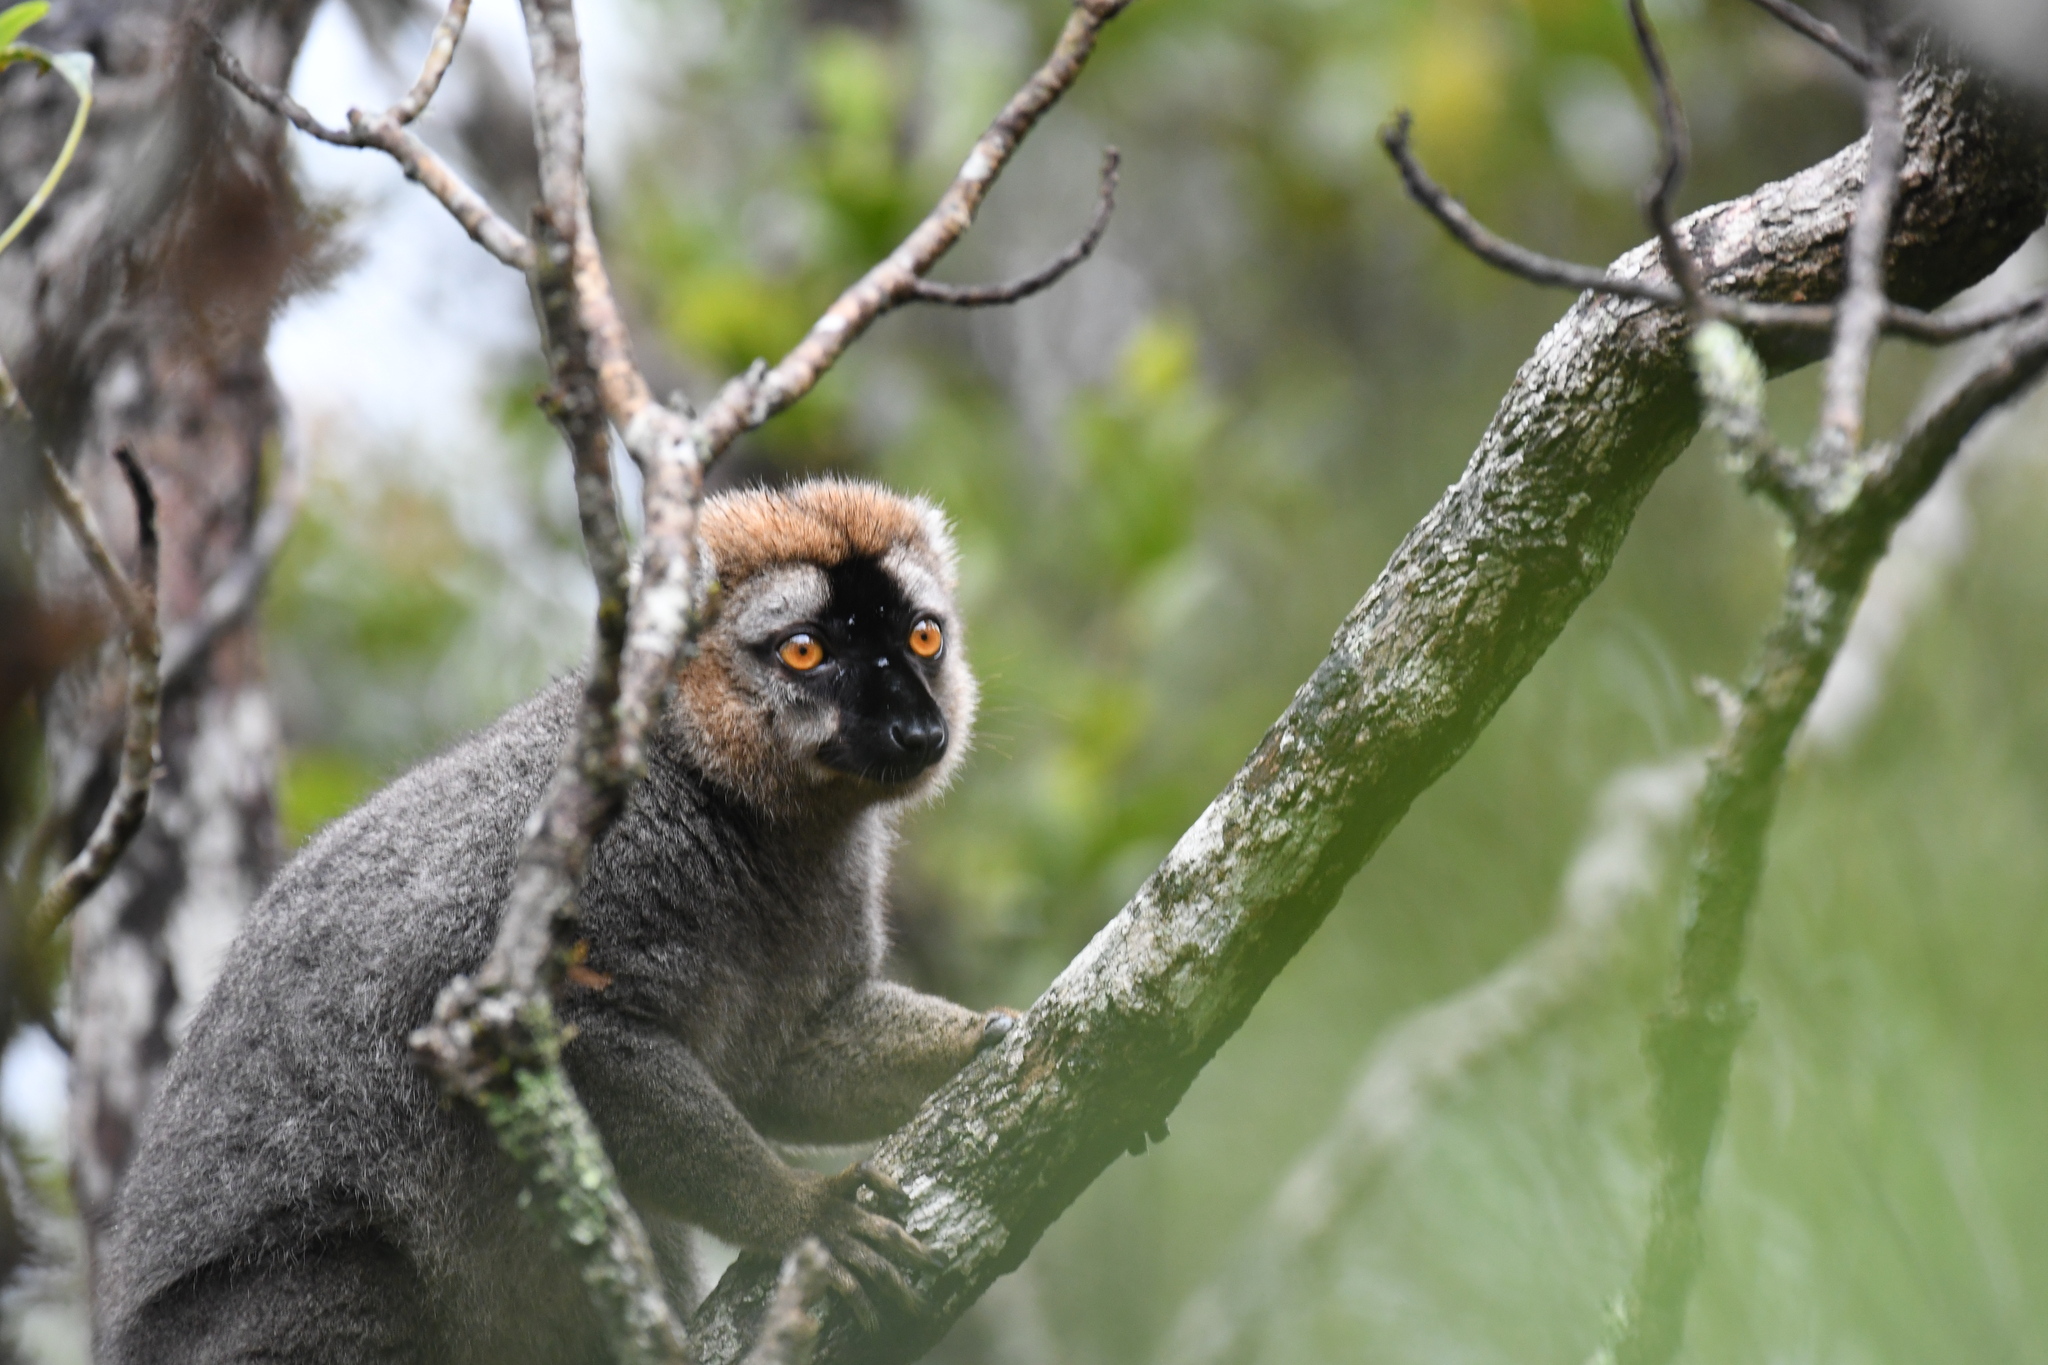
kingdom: Animalia
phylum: Chordata
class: Mammalia
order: Primates
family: Lemuridae
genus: Eulemur
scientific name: Eulemur rufifrons
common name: Red-fronted brown lemur
